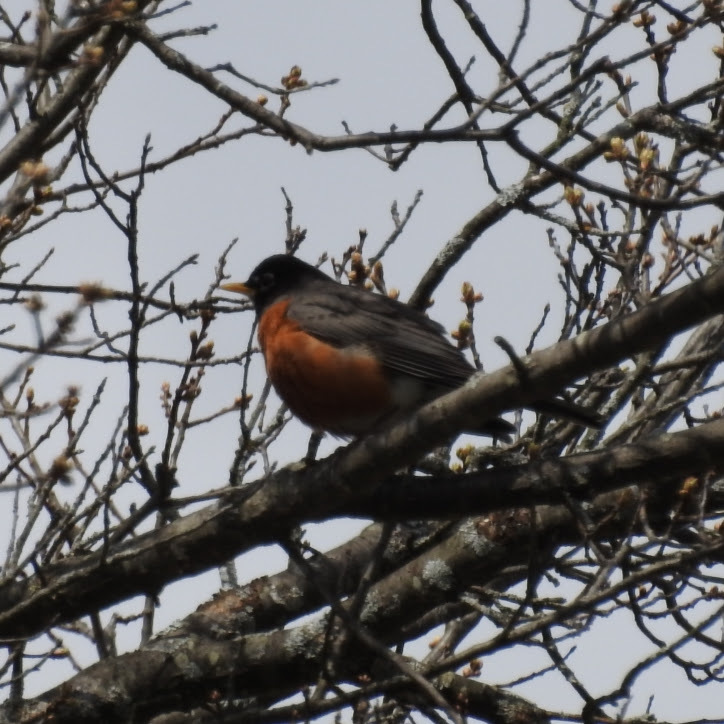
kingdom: Animalia
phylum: Chordata
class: Aves
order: Passeriformes
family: Turdidae
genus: Turdus
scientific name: Turdus migratorius
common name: American robin
